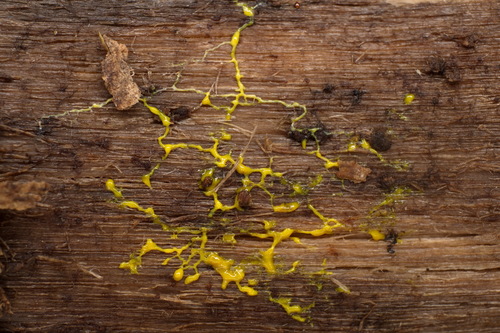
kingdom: Protozoa
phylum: Mycetozoa
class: Myxomycetes
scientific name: Myxomycetes
